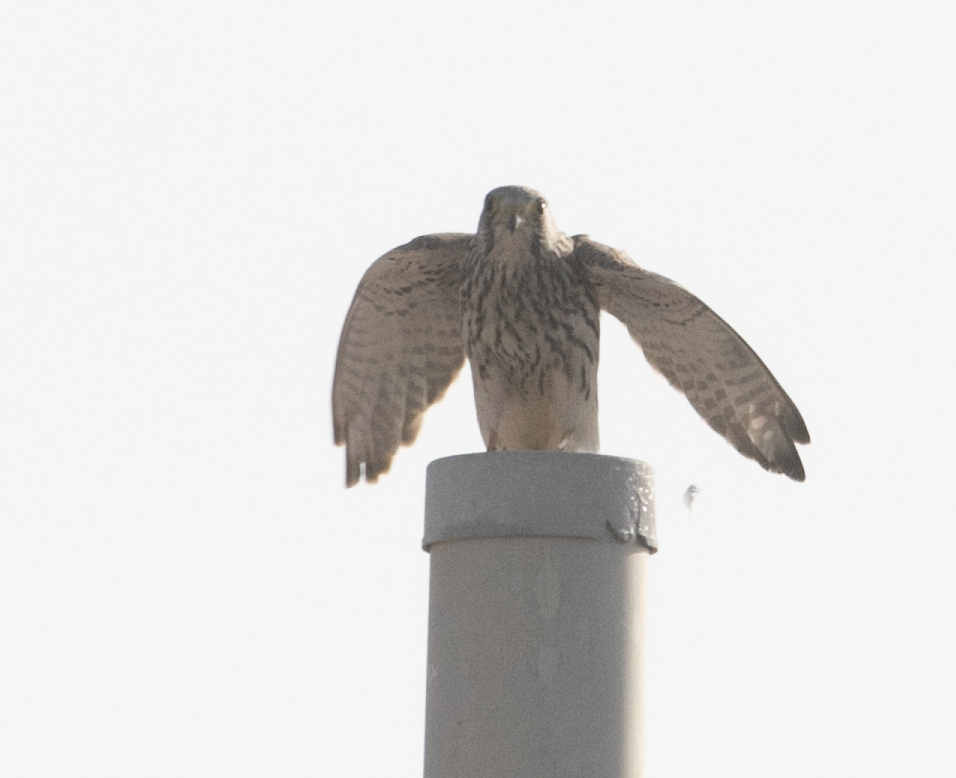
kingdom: Animalia
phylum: Chordata
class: Aves
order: Falconiformes
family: Falconidae
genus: Falco
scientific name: Falco tinnunculus
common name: Common kestrel
